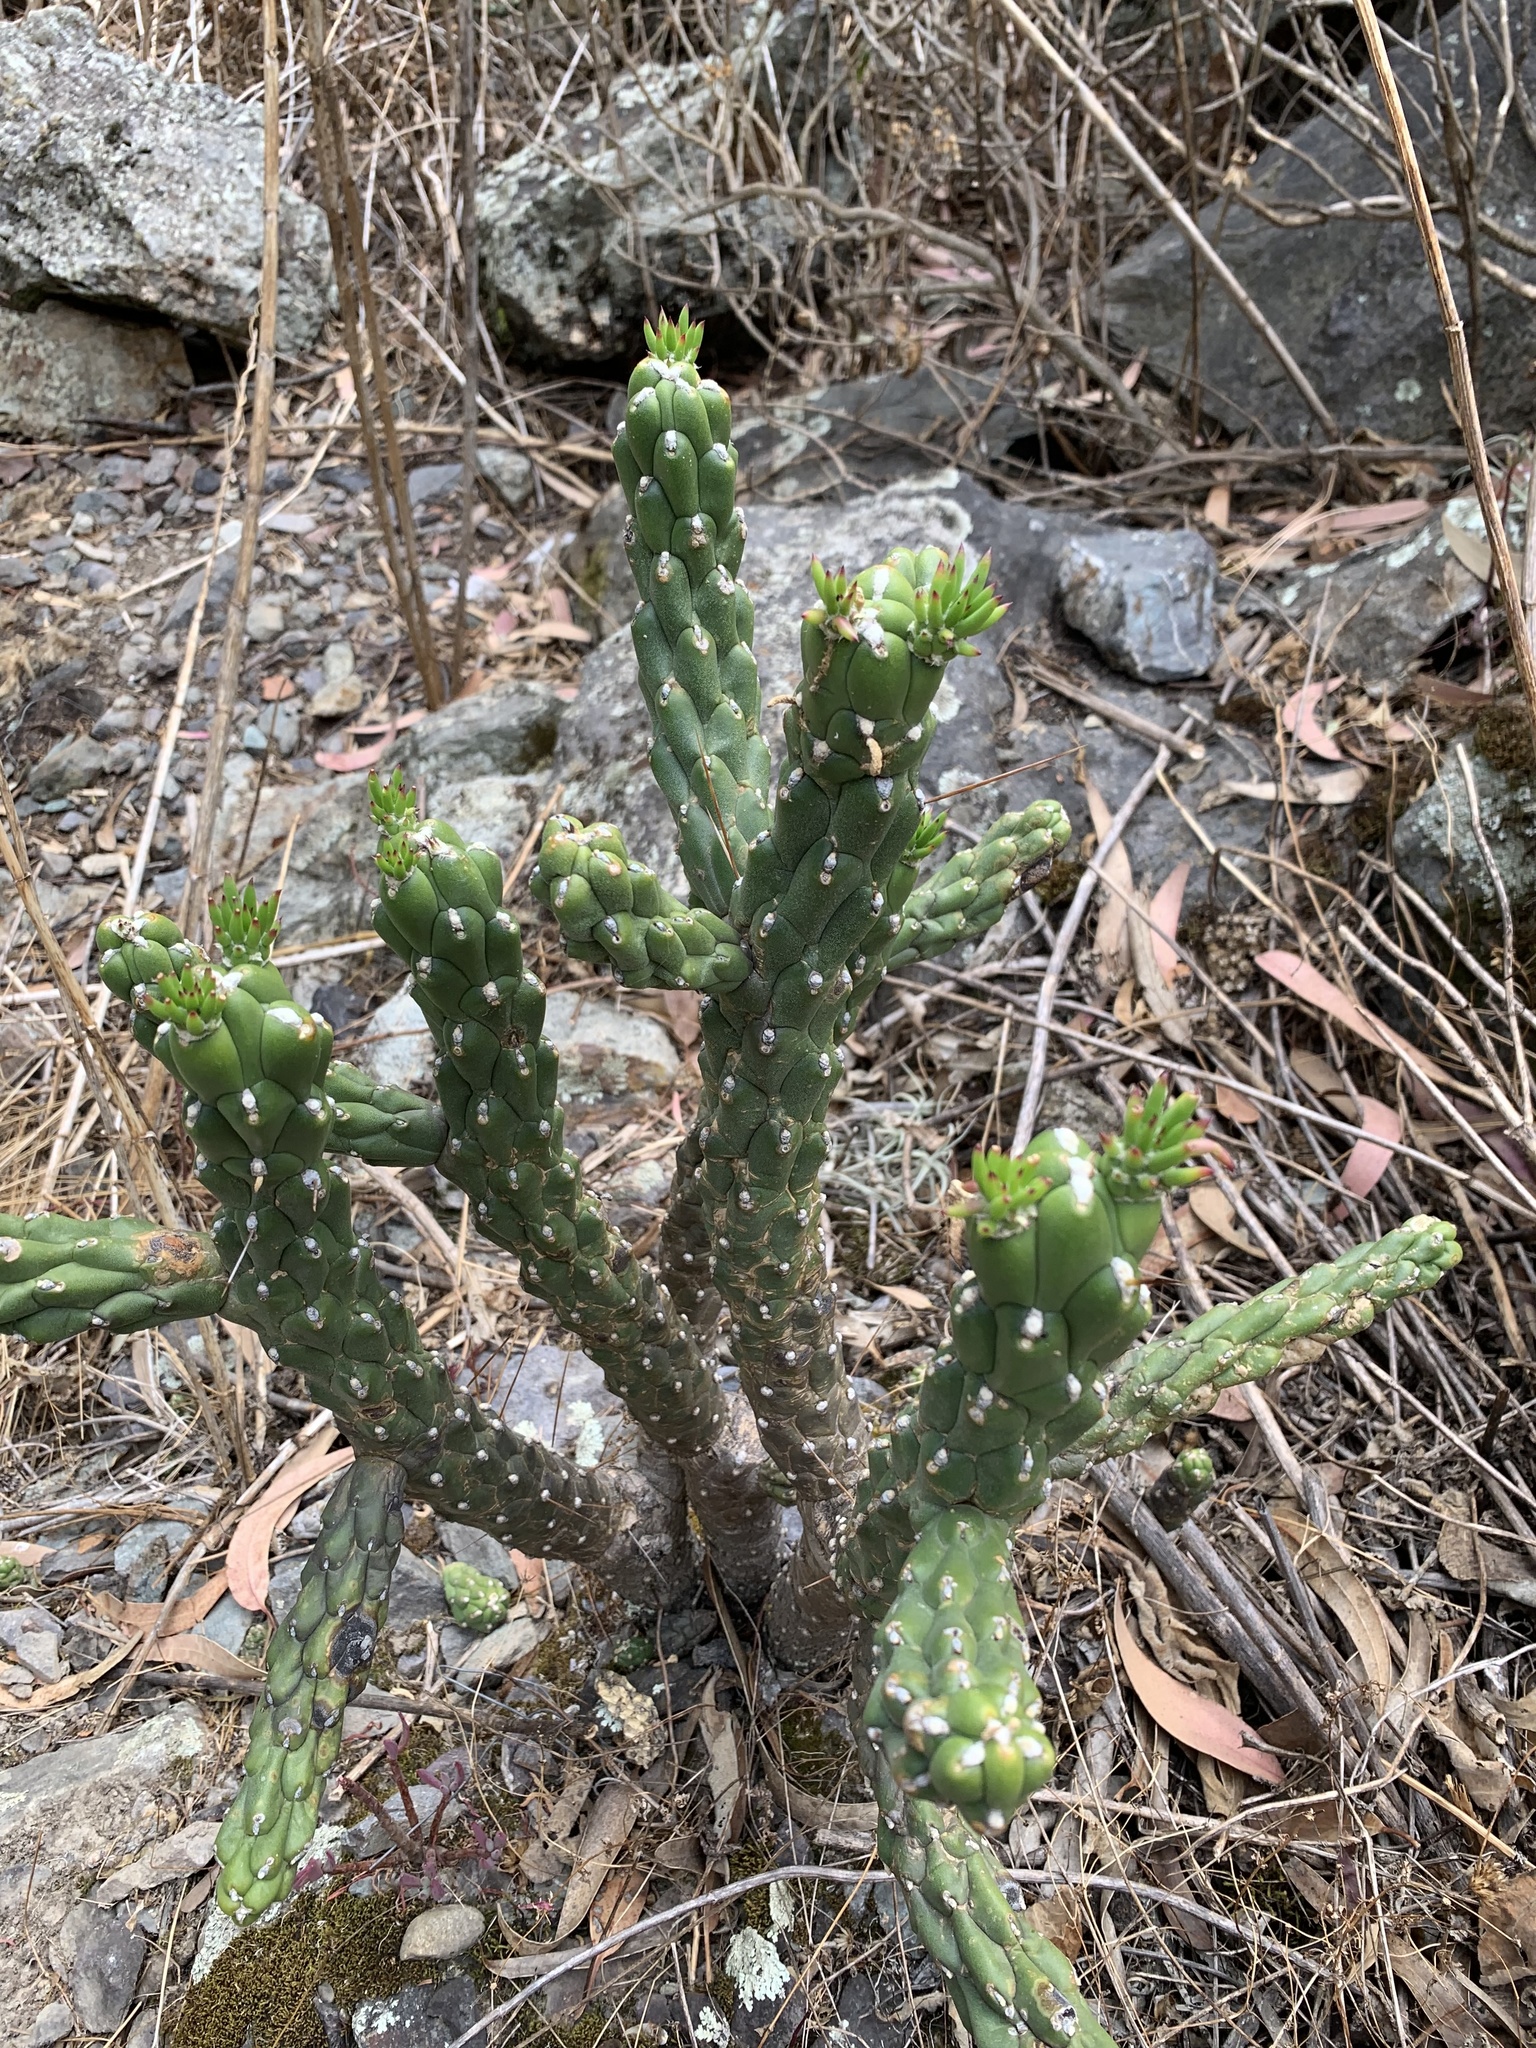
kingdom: Plantae
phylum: Tracheophyta
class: Magnoliopsida
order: Caryophyllales
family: Cactaceae
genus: Austrocylindropuntia
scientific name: Austrocylindropuntia subulata
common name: Eve's needle cactus
